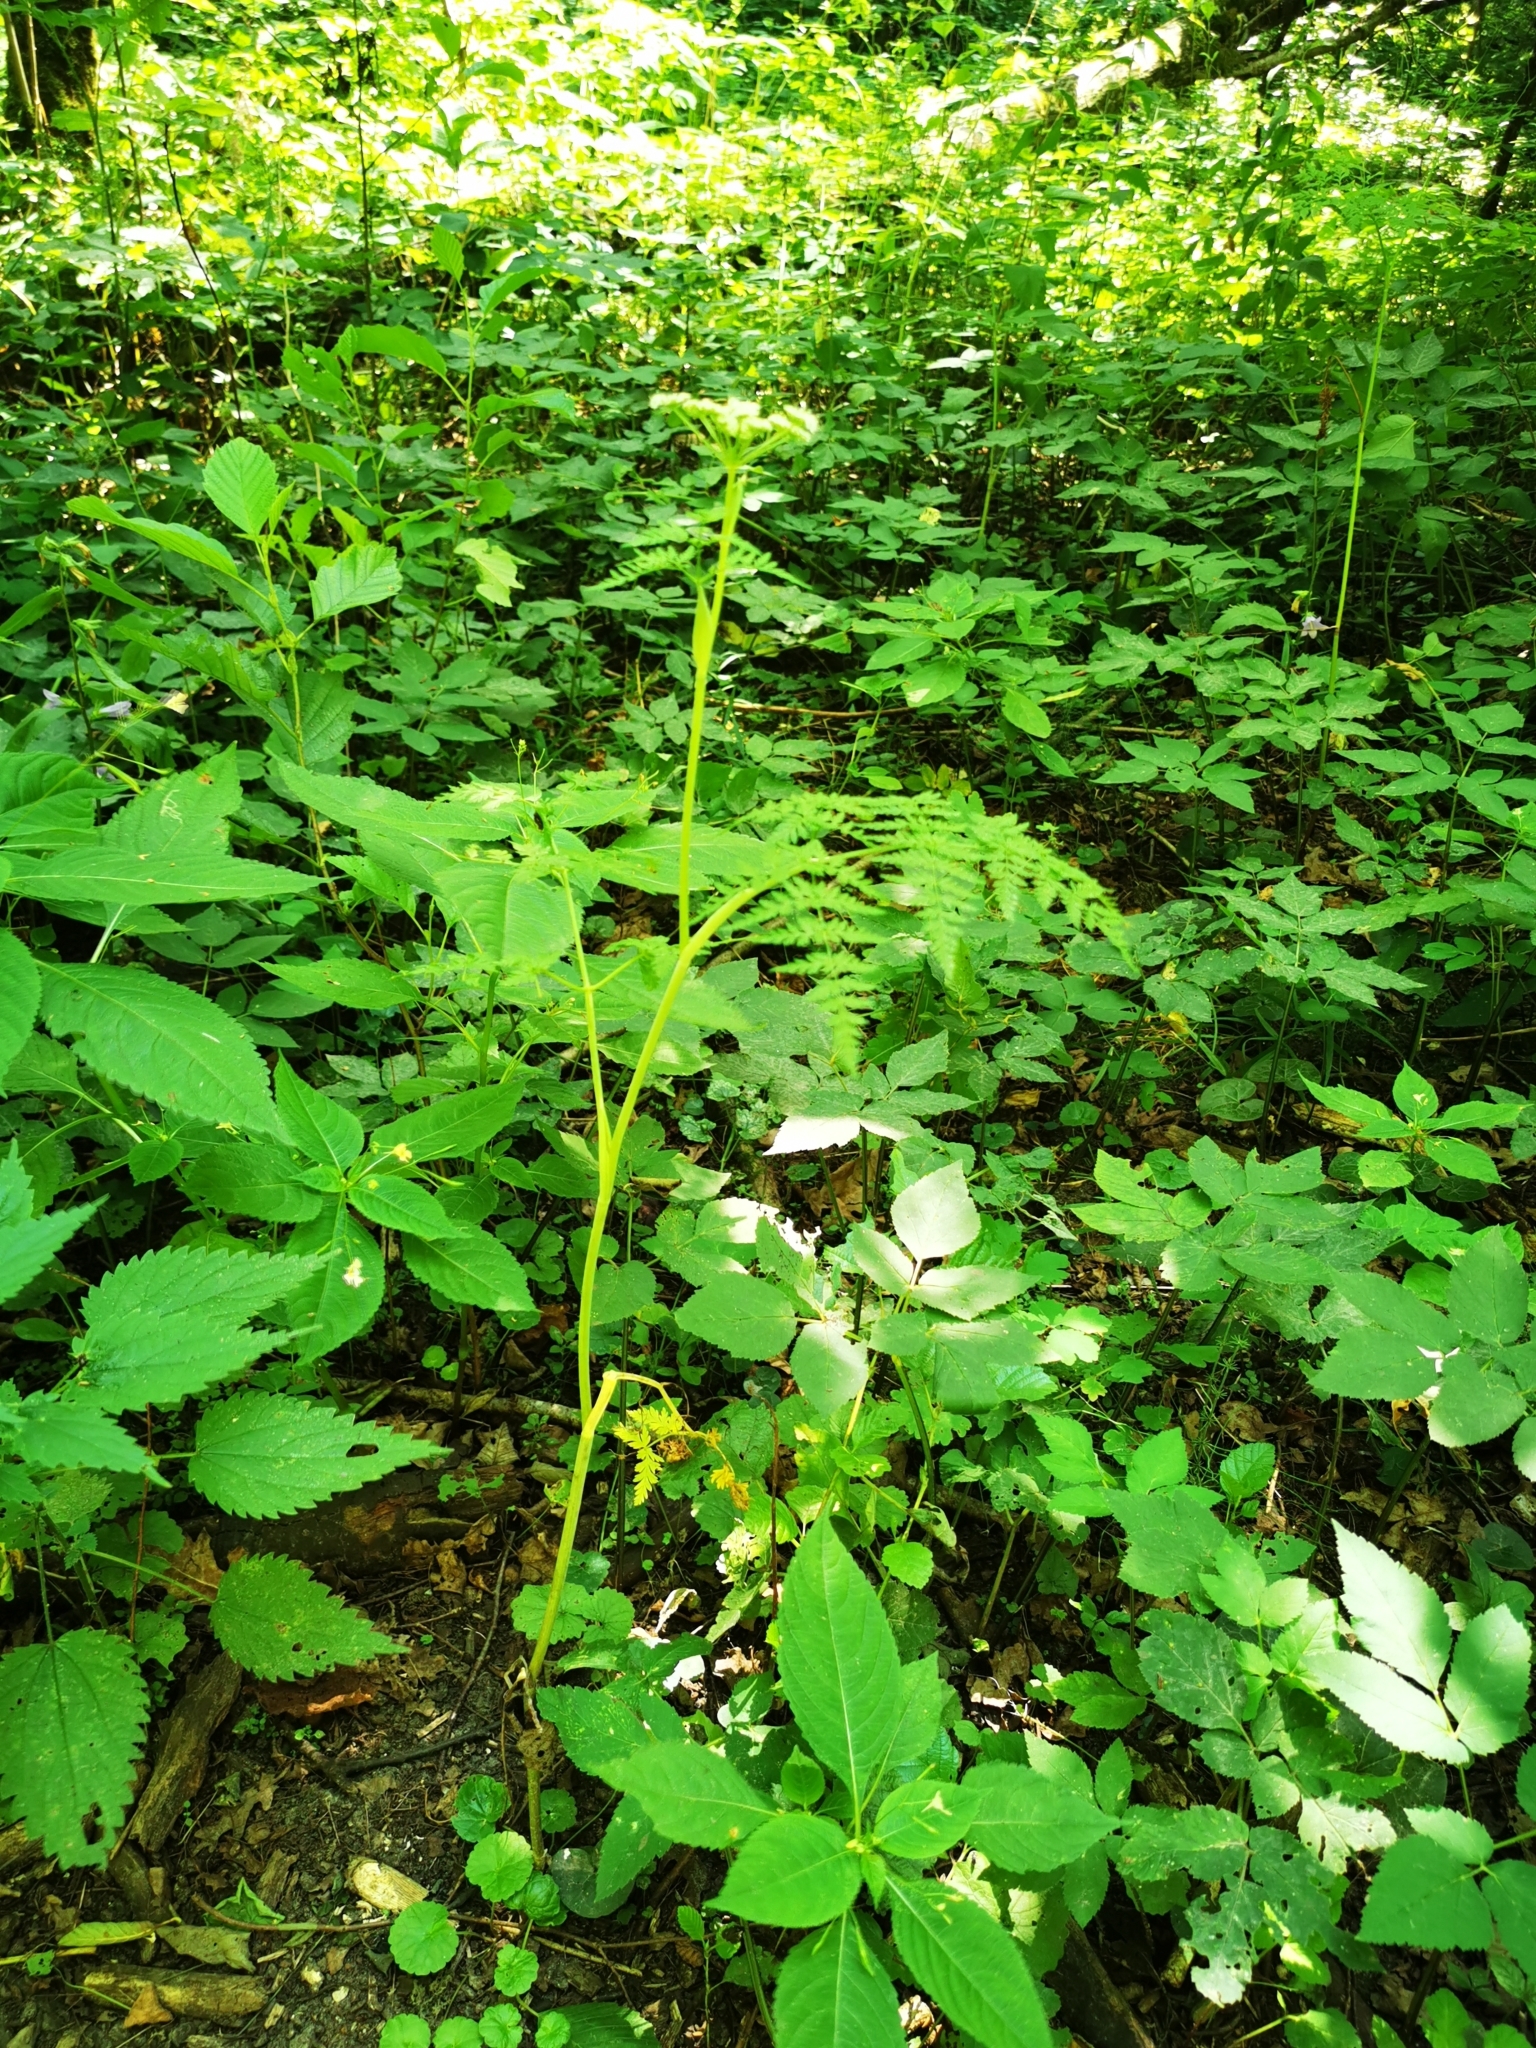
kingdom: Plantae
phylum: Tracheophyta
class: Magnoliopsida
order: Apiales
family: Apiaceae
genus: Conioselinum
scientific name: Conioselinum tataricum
